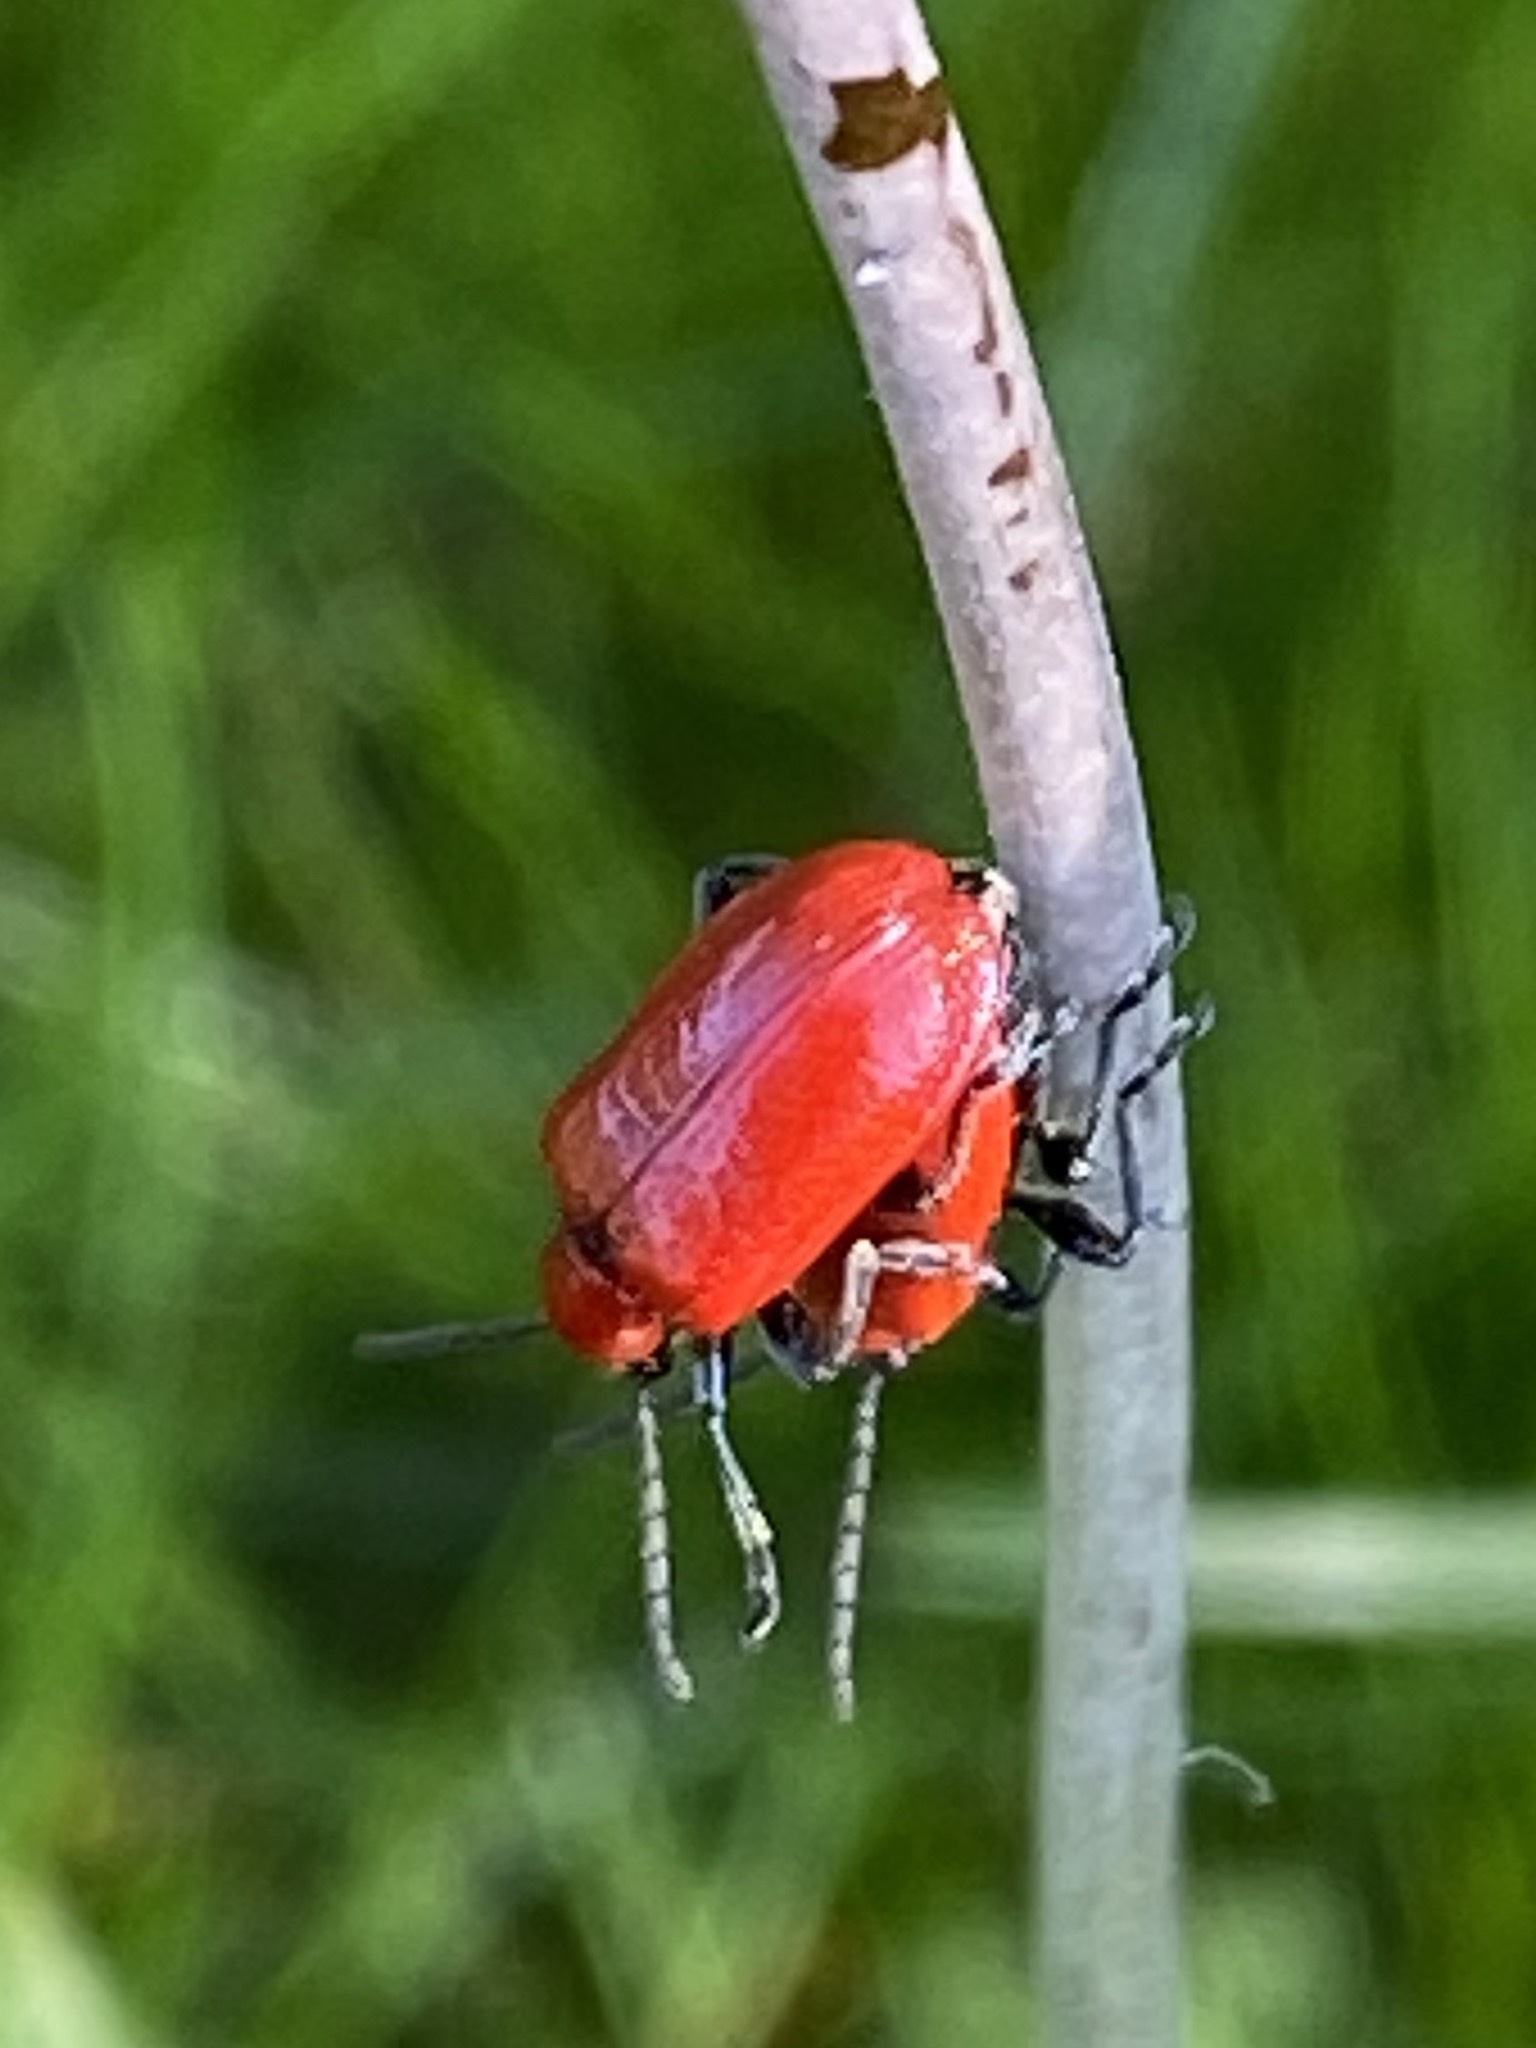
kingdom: Animalia
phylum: Arthropoda
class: Insecta
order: Coleoptera
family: Chrysomelidae
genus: Lilioceris
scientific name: Lilioceris lilii
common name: Lily beetle
